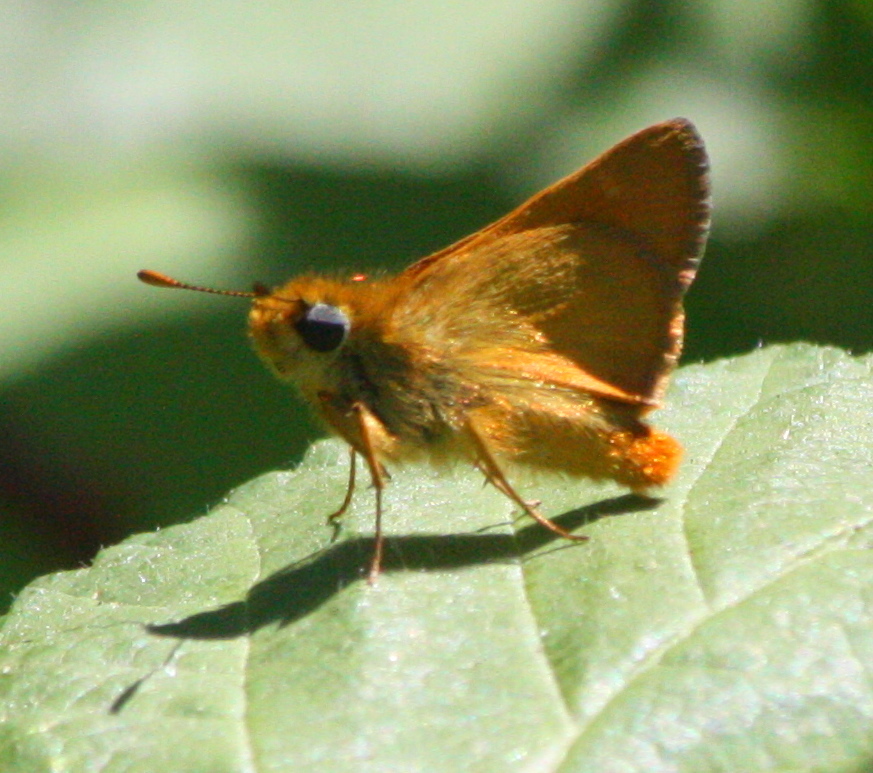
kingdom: Animalia
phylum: Arthropoda
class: Insecta
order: Lepidoptera
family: Hesperiidae
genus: Ochlodes
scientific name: Ochlodes agricola
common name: Rural skipper
